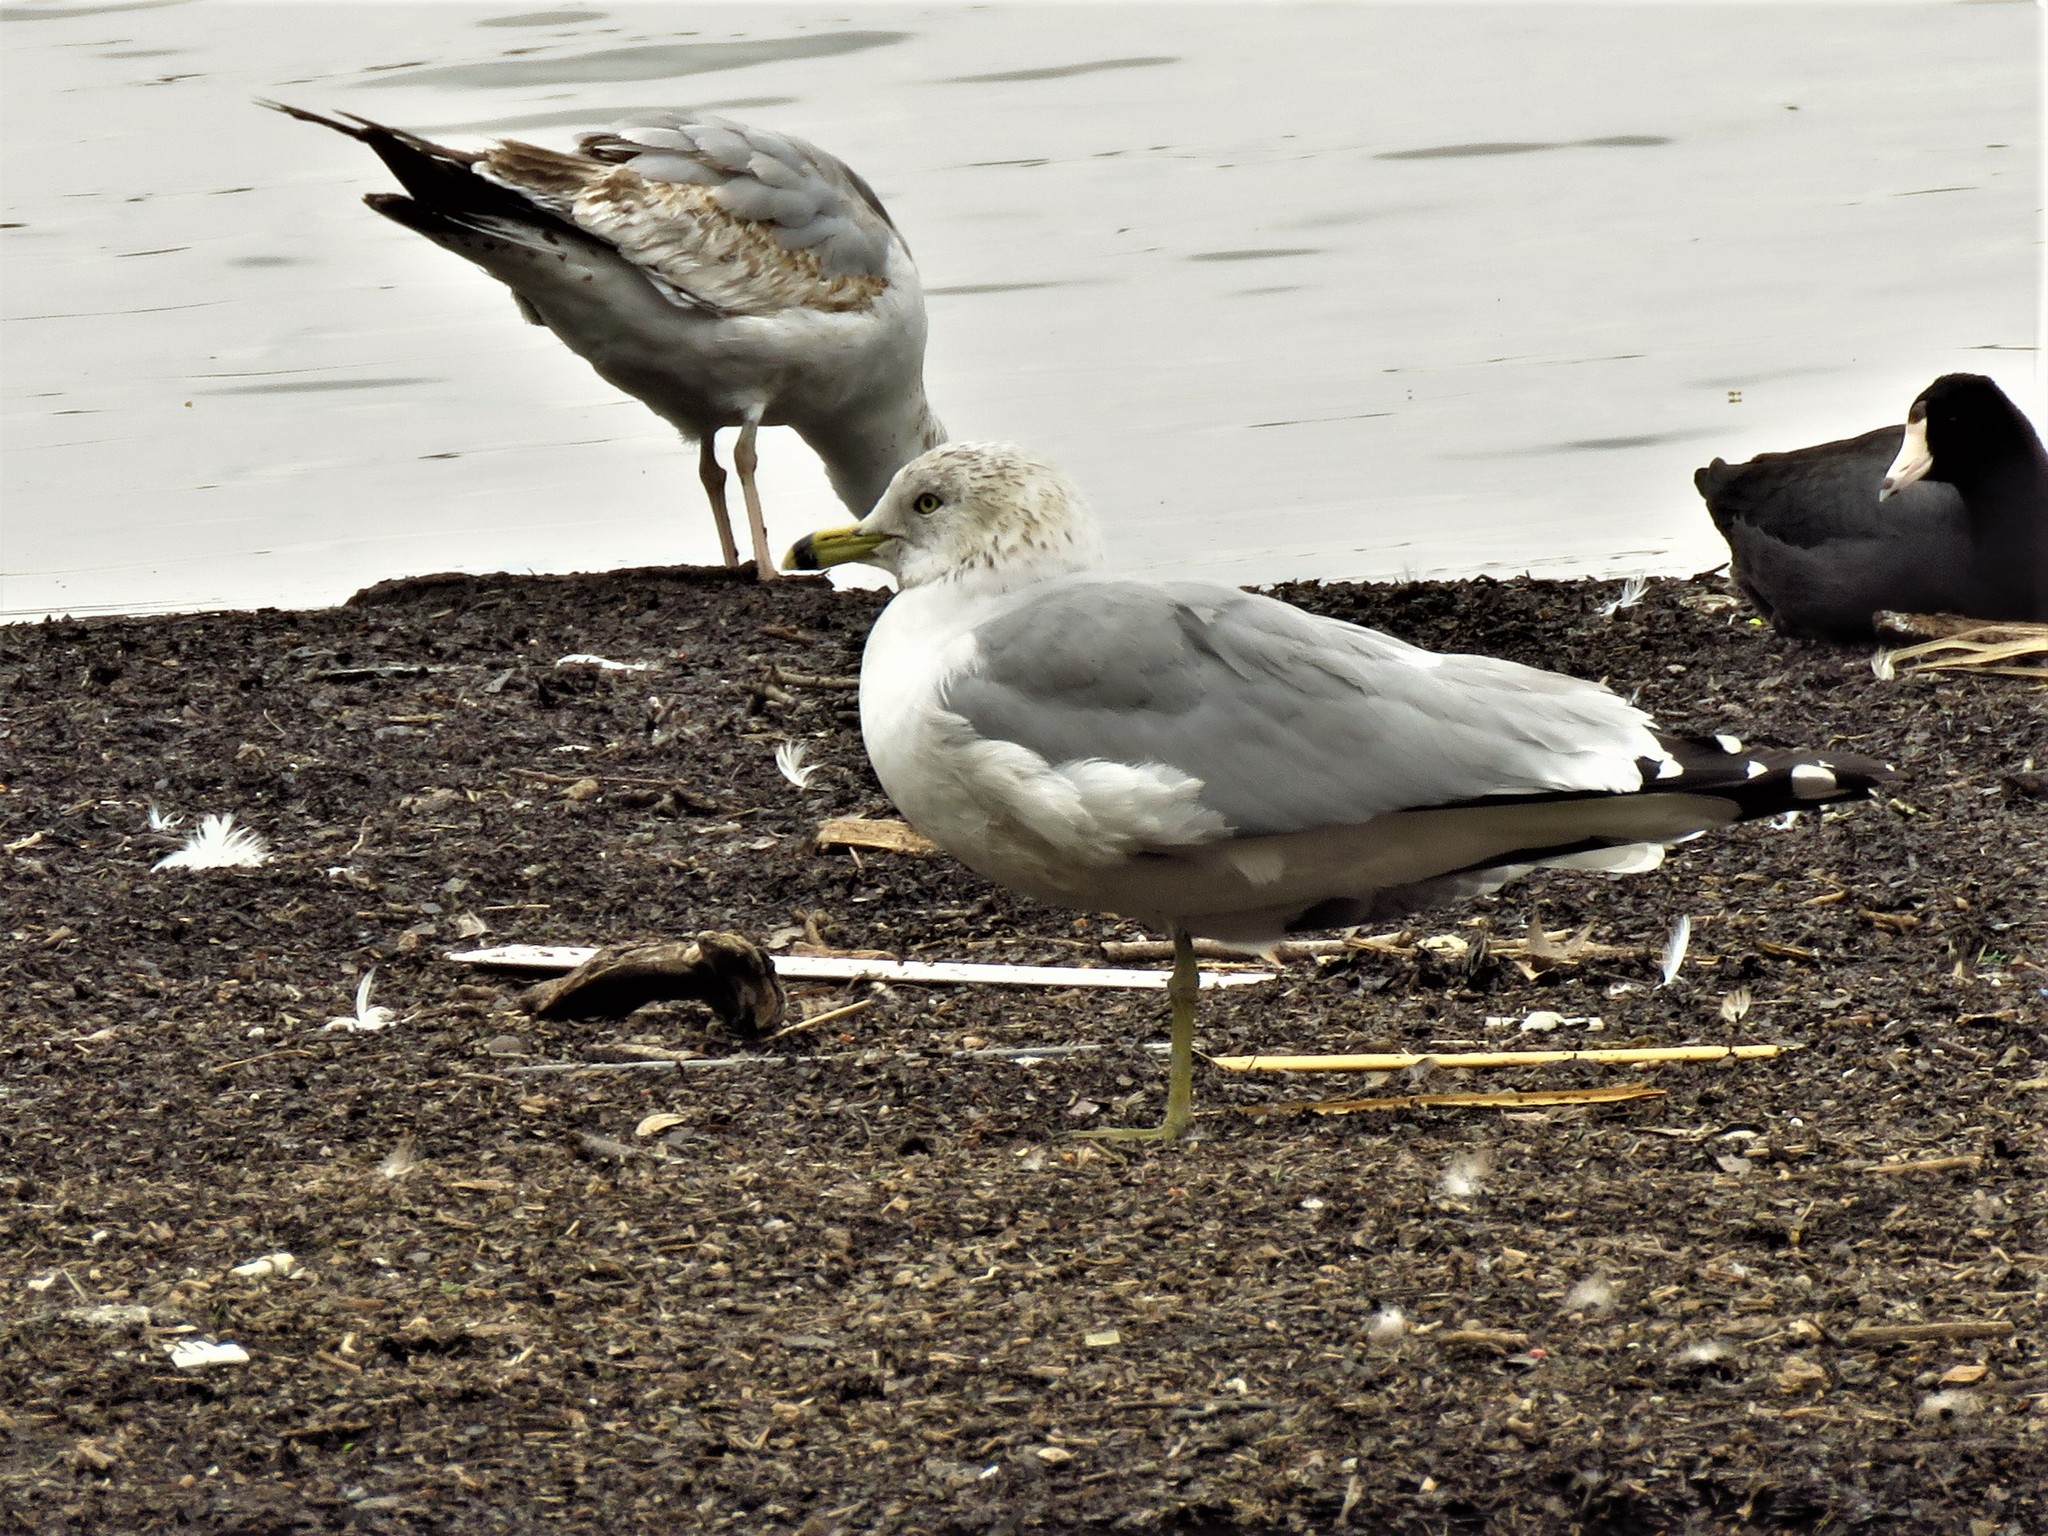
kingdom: Animalia
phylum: Chordata
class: Aves
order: Charadriiformes
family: Laridae
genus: Larus
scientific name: Larus delawarensis
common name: Ring-billed gull
